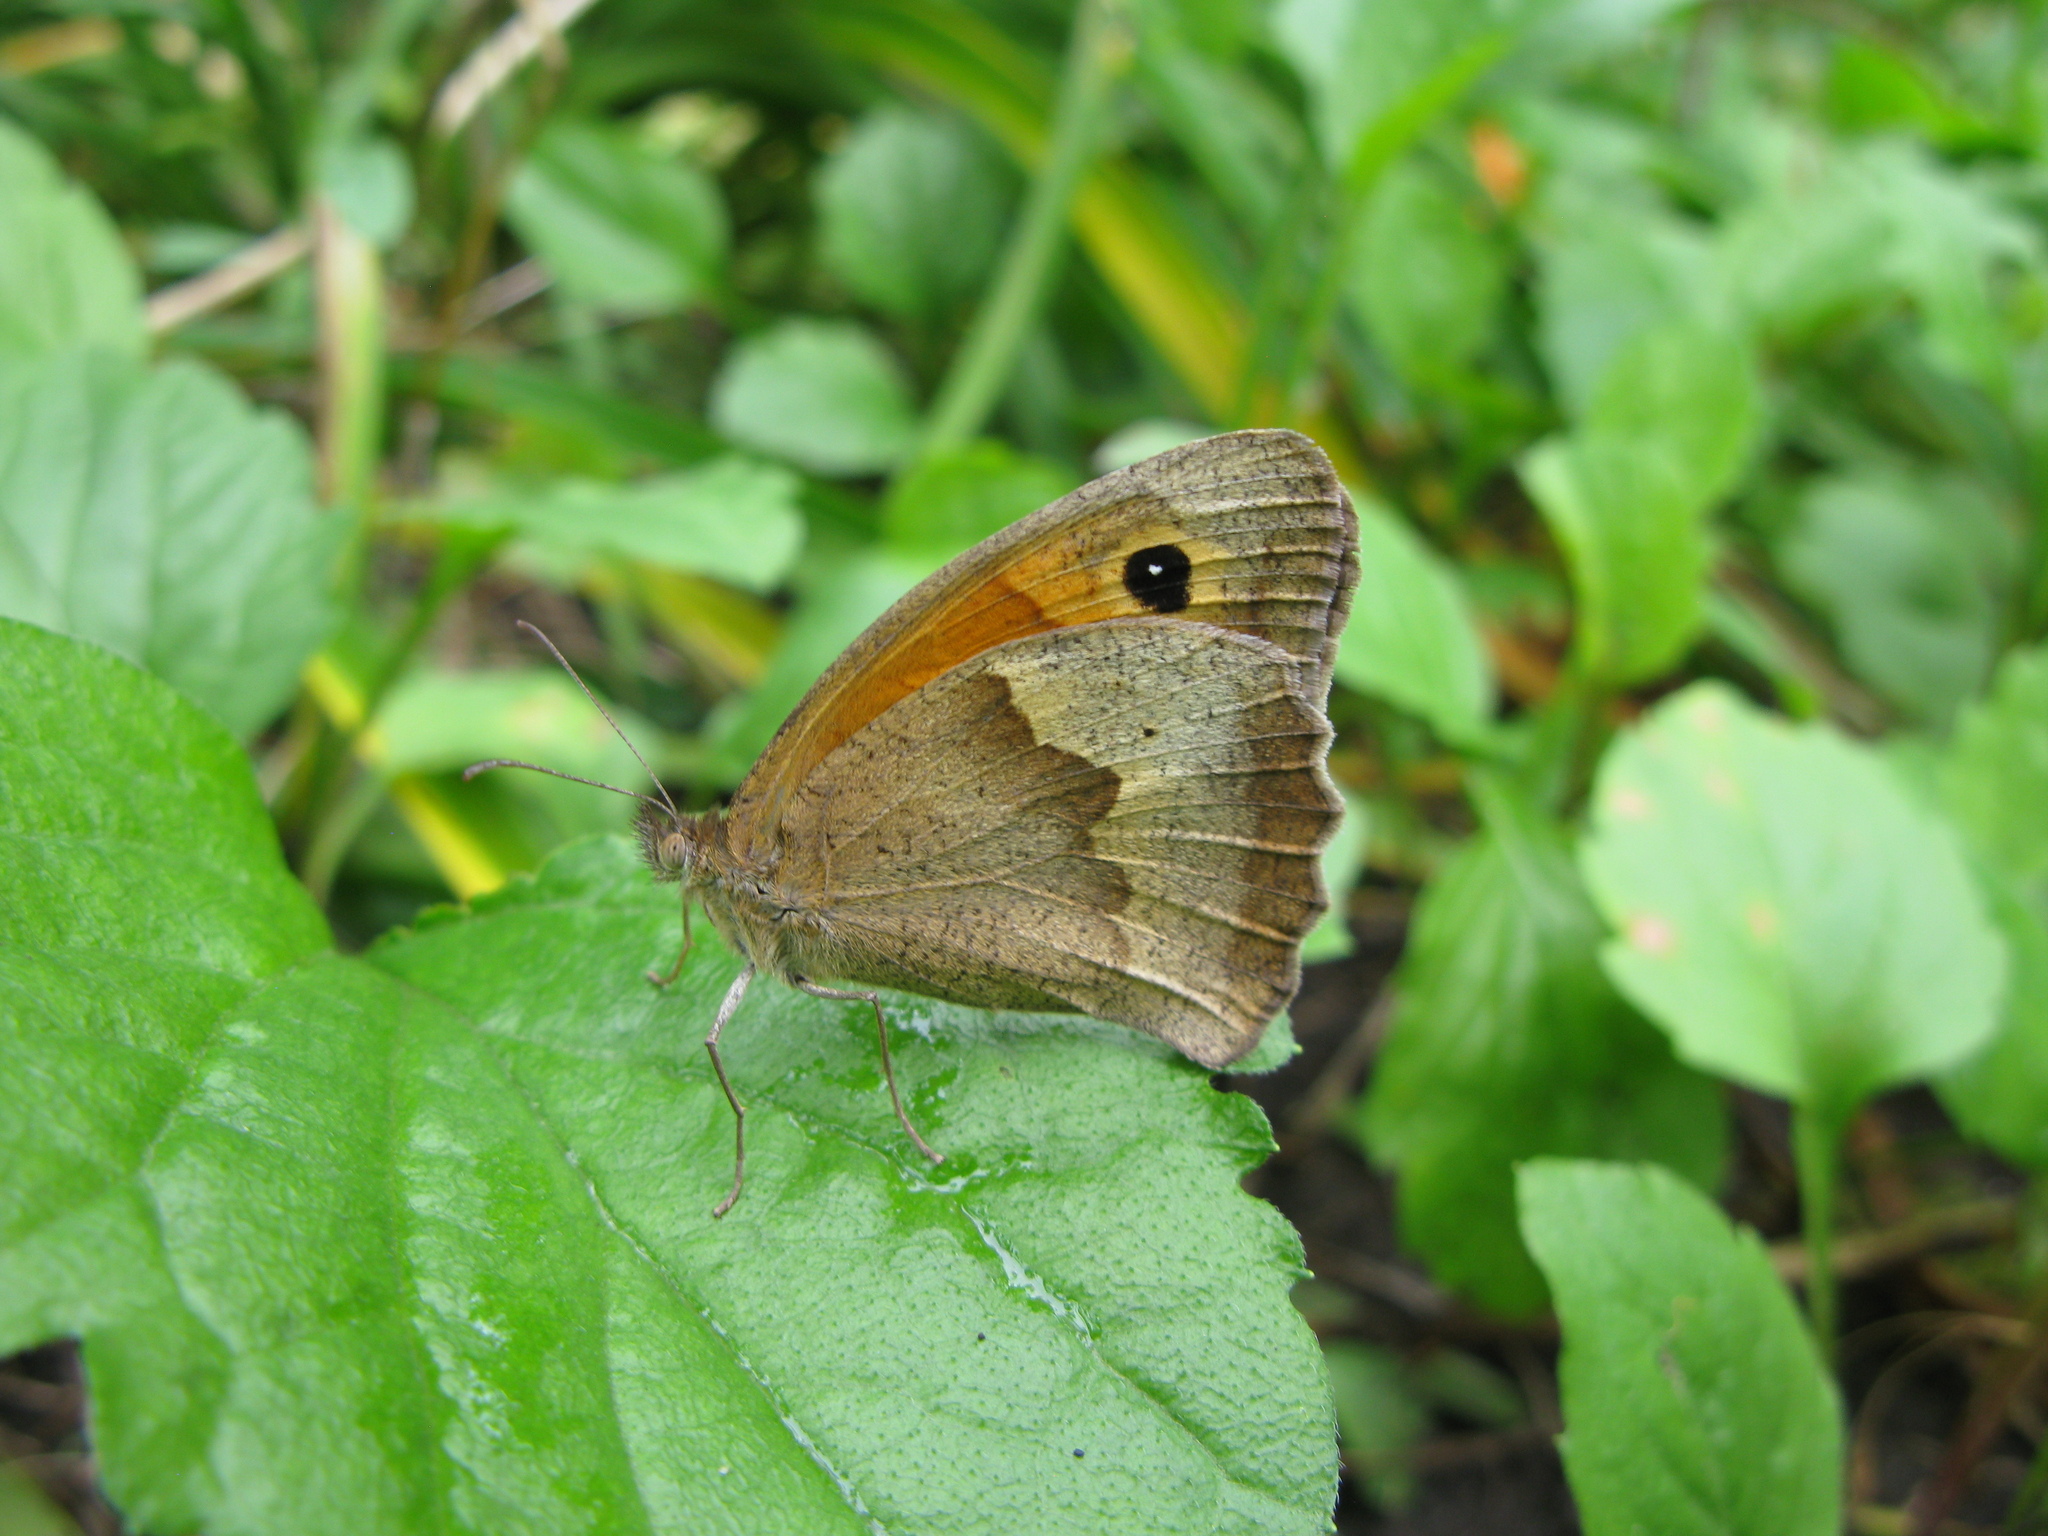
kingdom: Animalia
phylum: Arthropoda
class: Insecta
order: Lepidoptera
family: Nymphalidae
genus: Maniola
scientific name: Maniola jurtina
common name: Meadow brown
